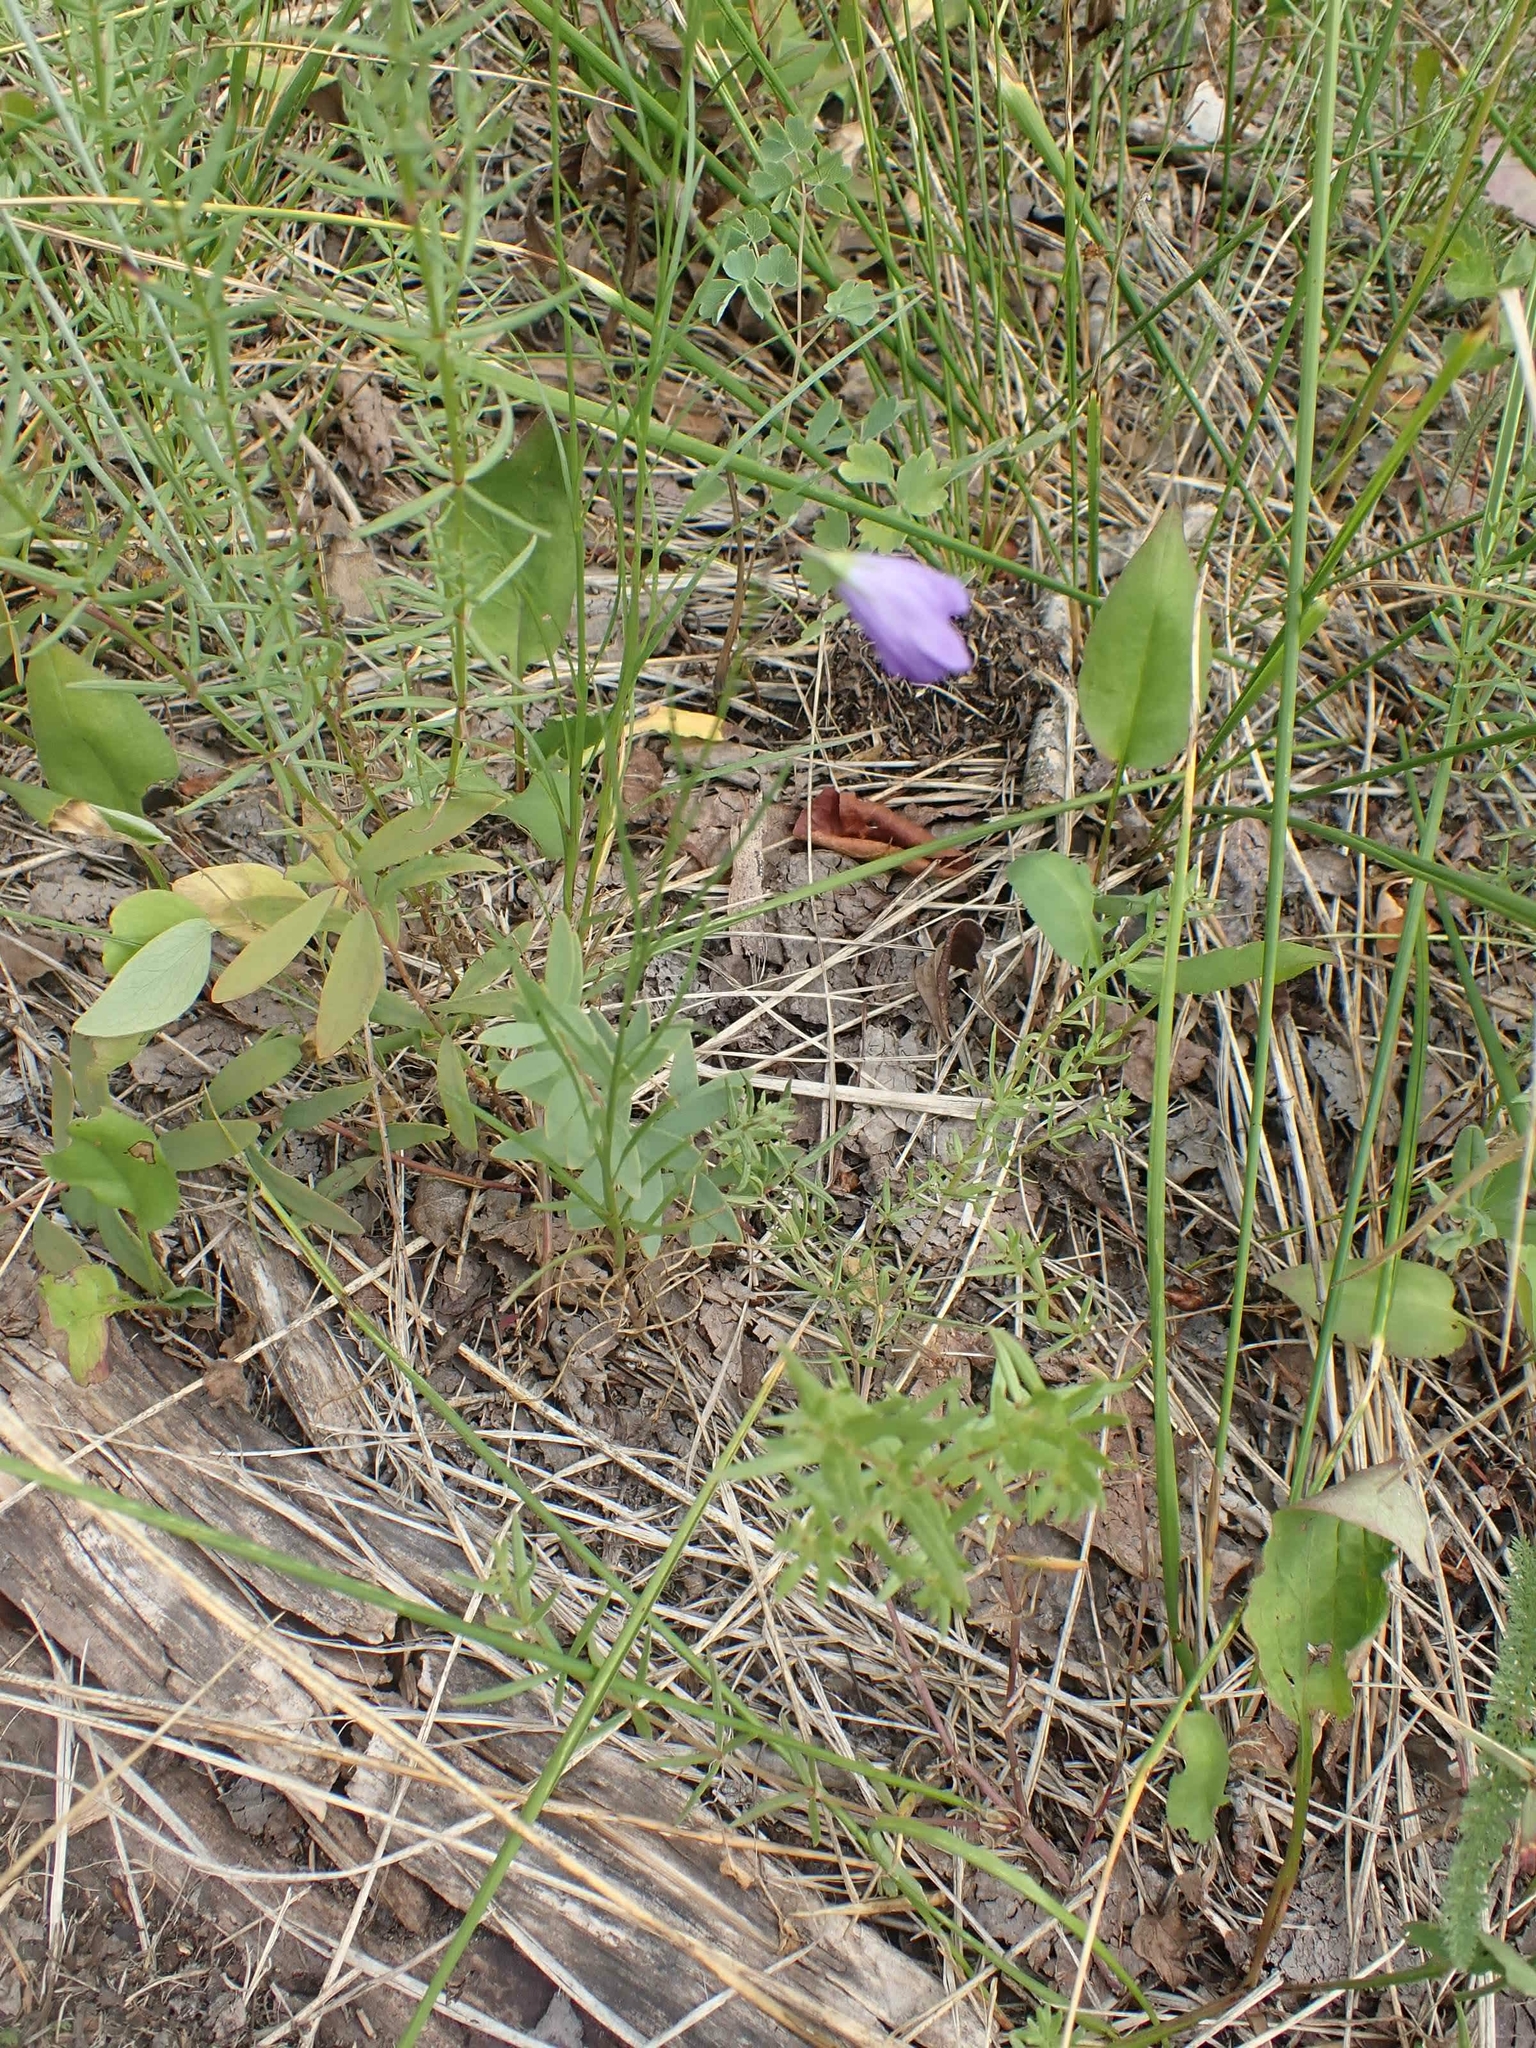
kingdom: Plantae
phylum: Tracheophyta
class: Magnoliopsida
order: Asterales
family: Campanulaceae
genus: Campanula
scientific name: Campanula petiolata
